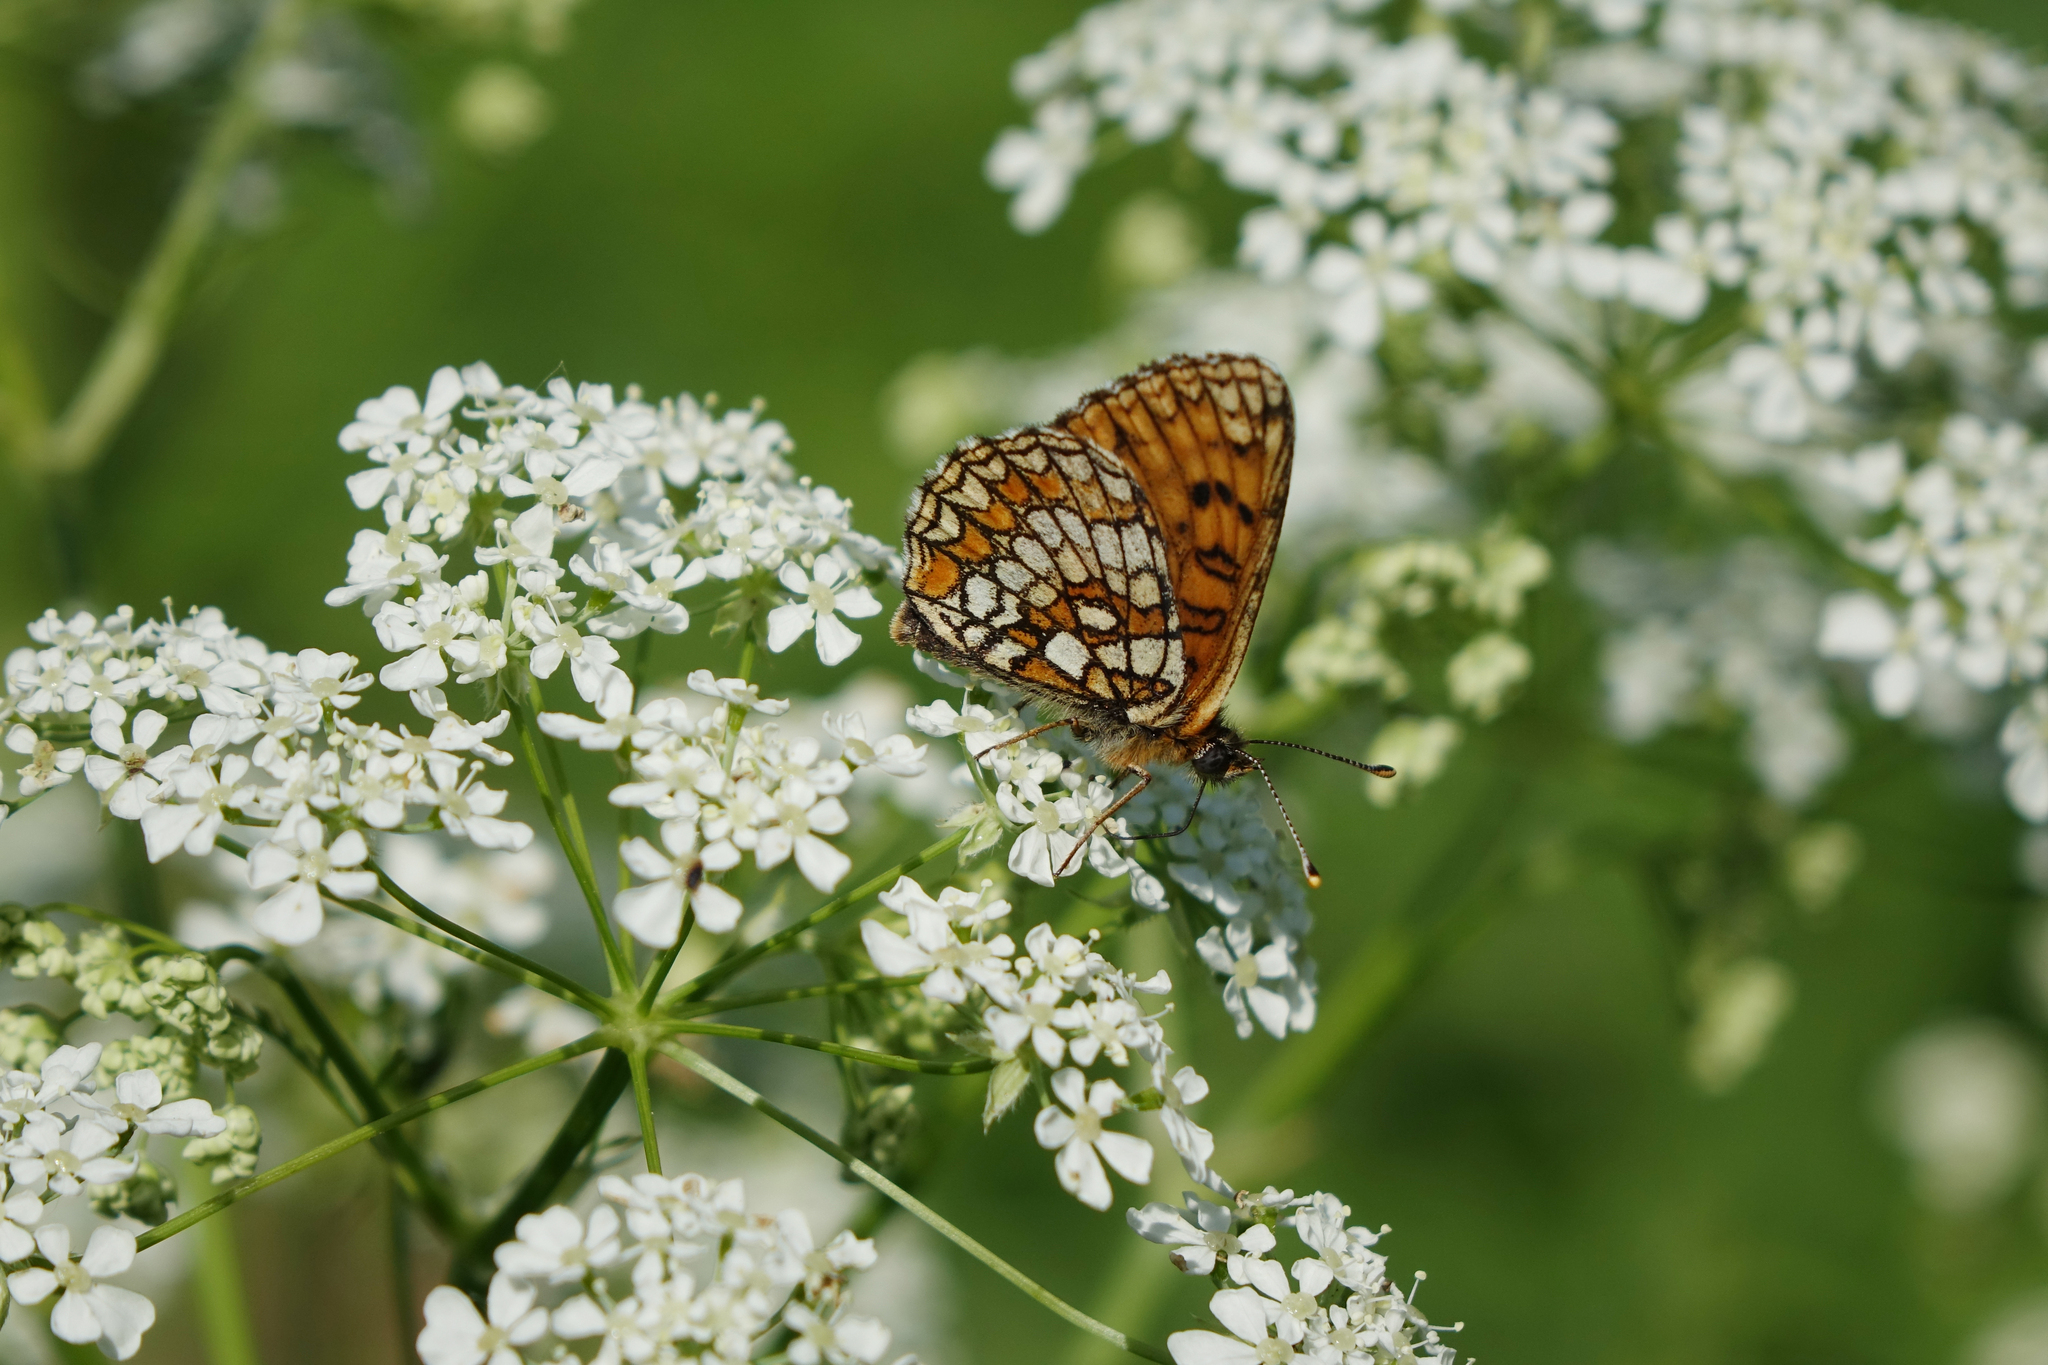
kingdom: Plantae
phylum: Tracheophyta
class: Magnoliopsida
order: Apiales
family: Apiaceae
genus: Anthriscus
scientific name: Anthriscus sylvestris
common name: Cow parsley
